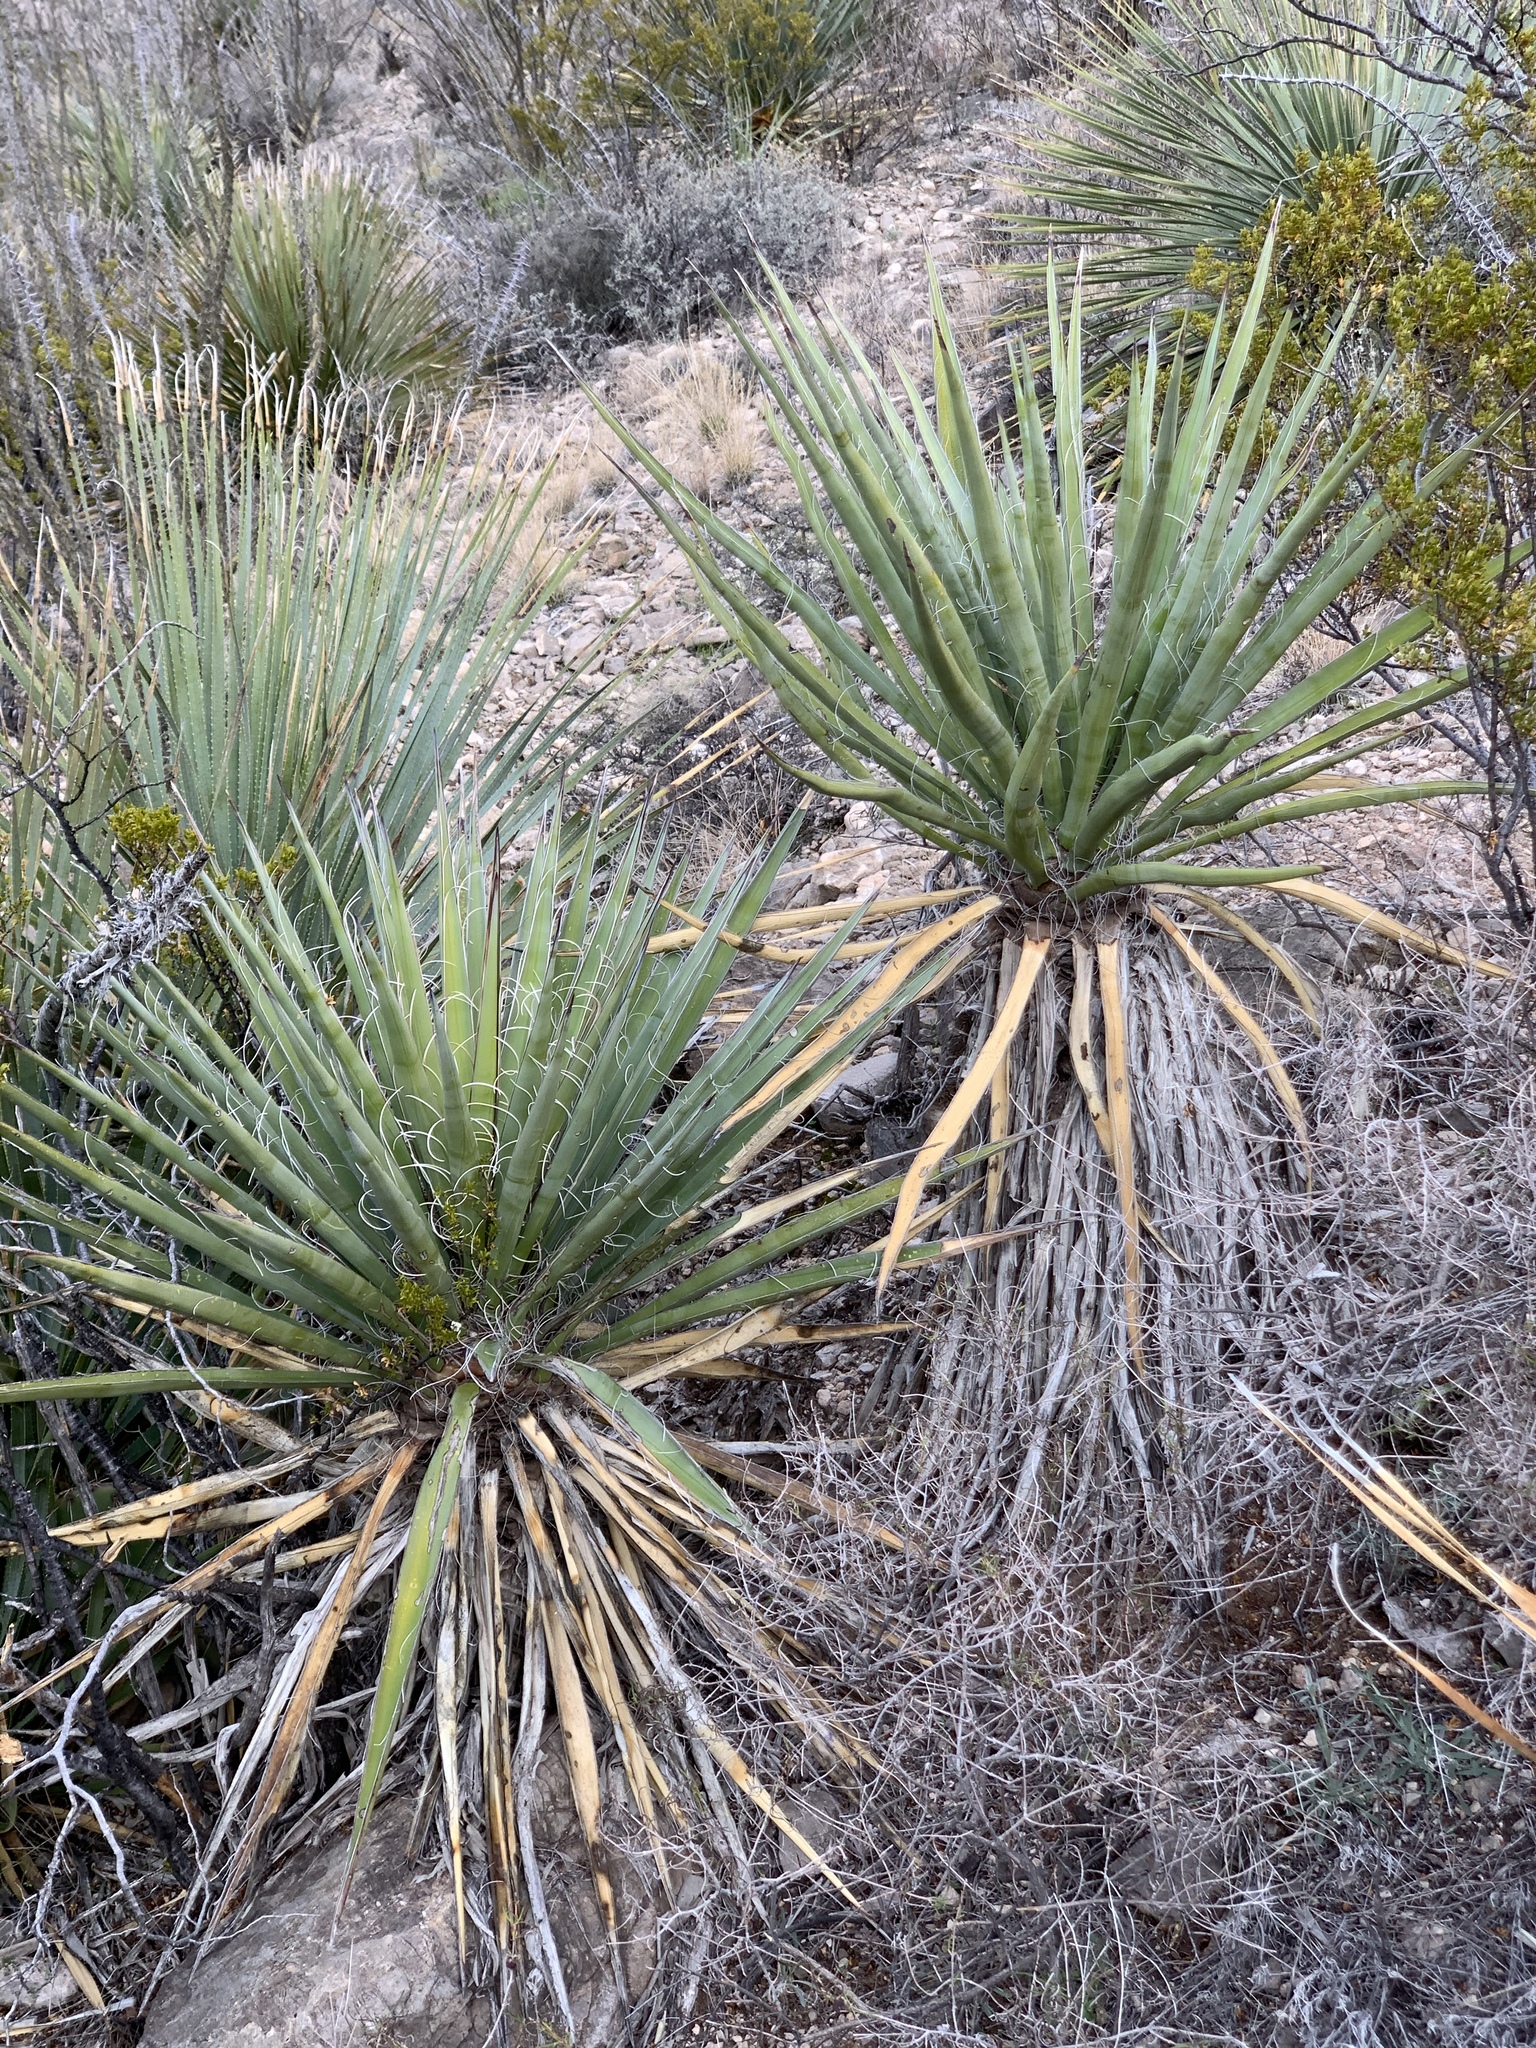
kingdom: Plantae
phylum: Tracheophyta
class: Liliopsida
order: Asparagales
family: Asparagaceae
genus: Yucca
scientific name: Yucca treculiana
